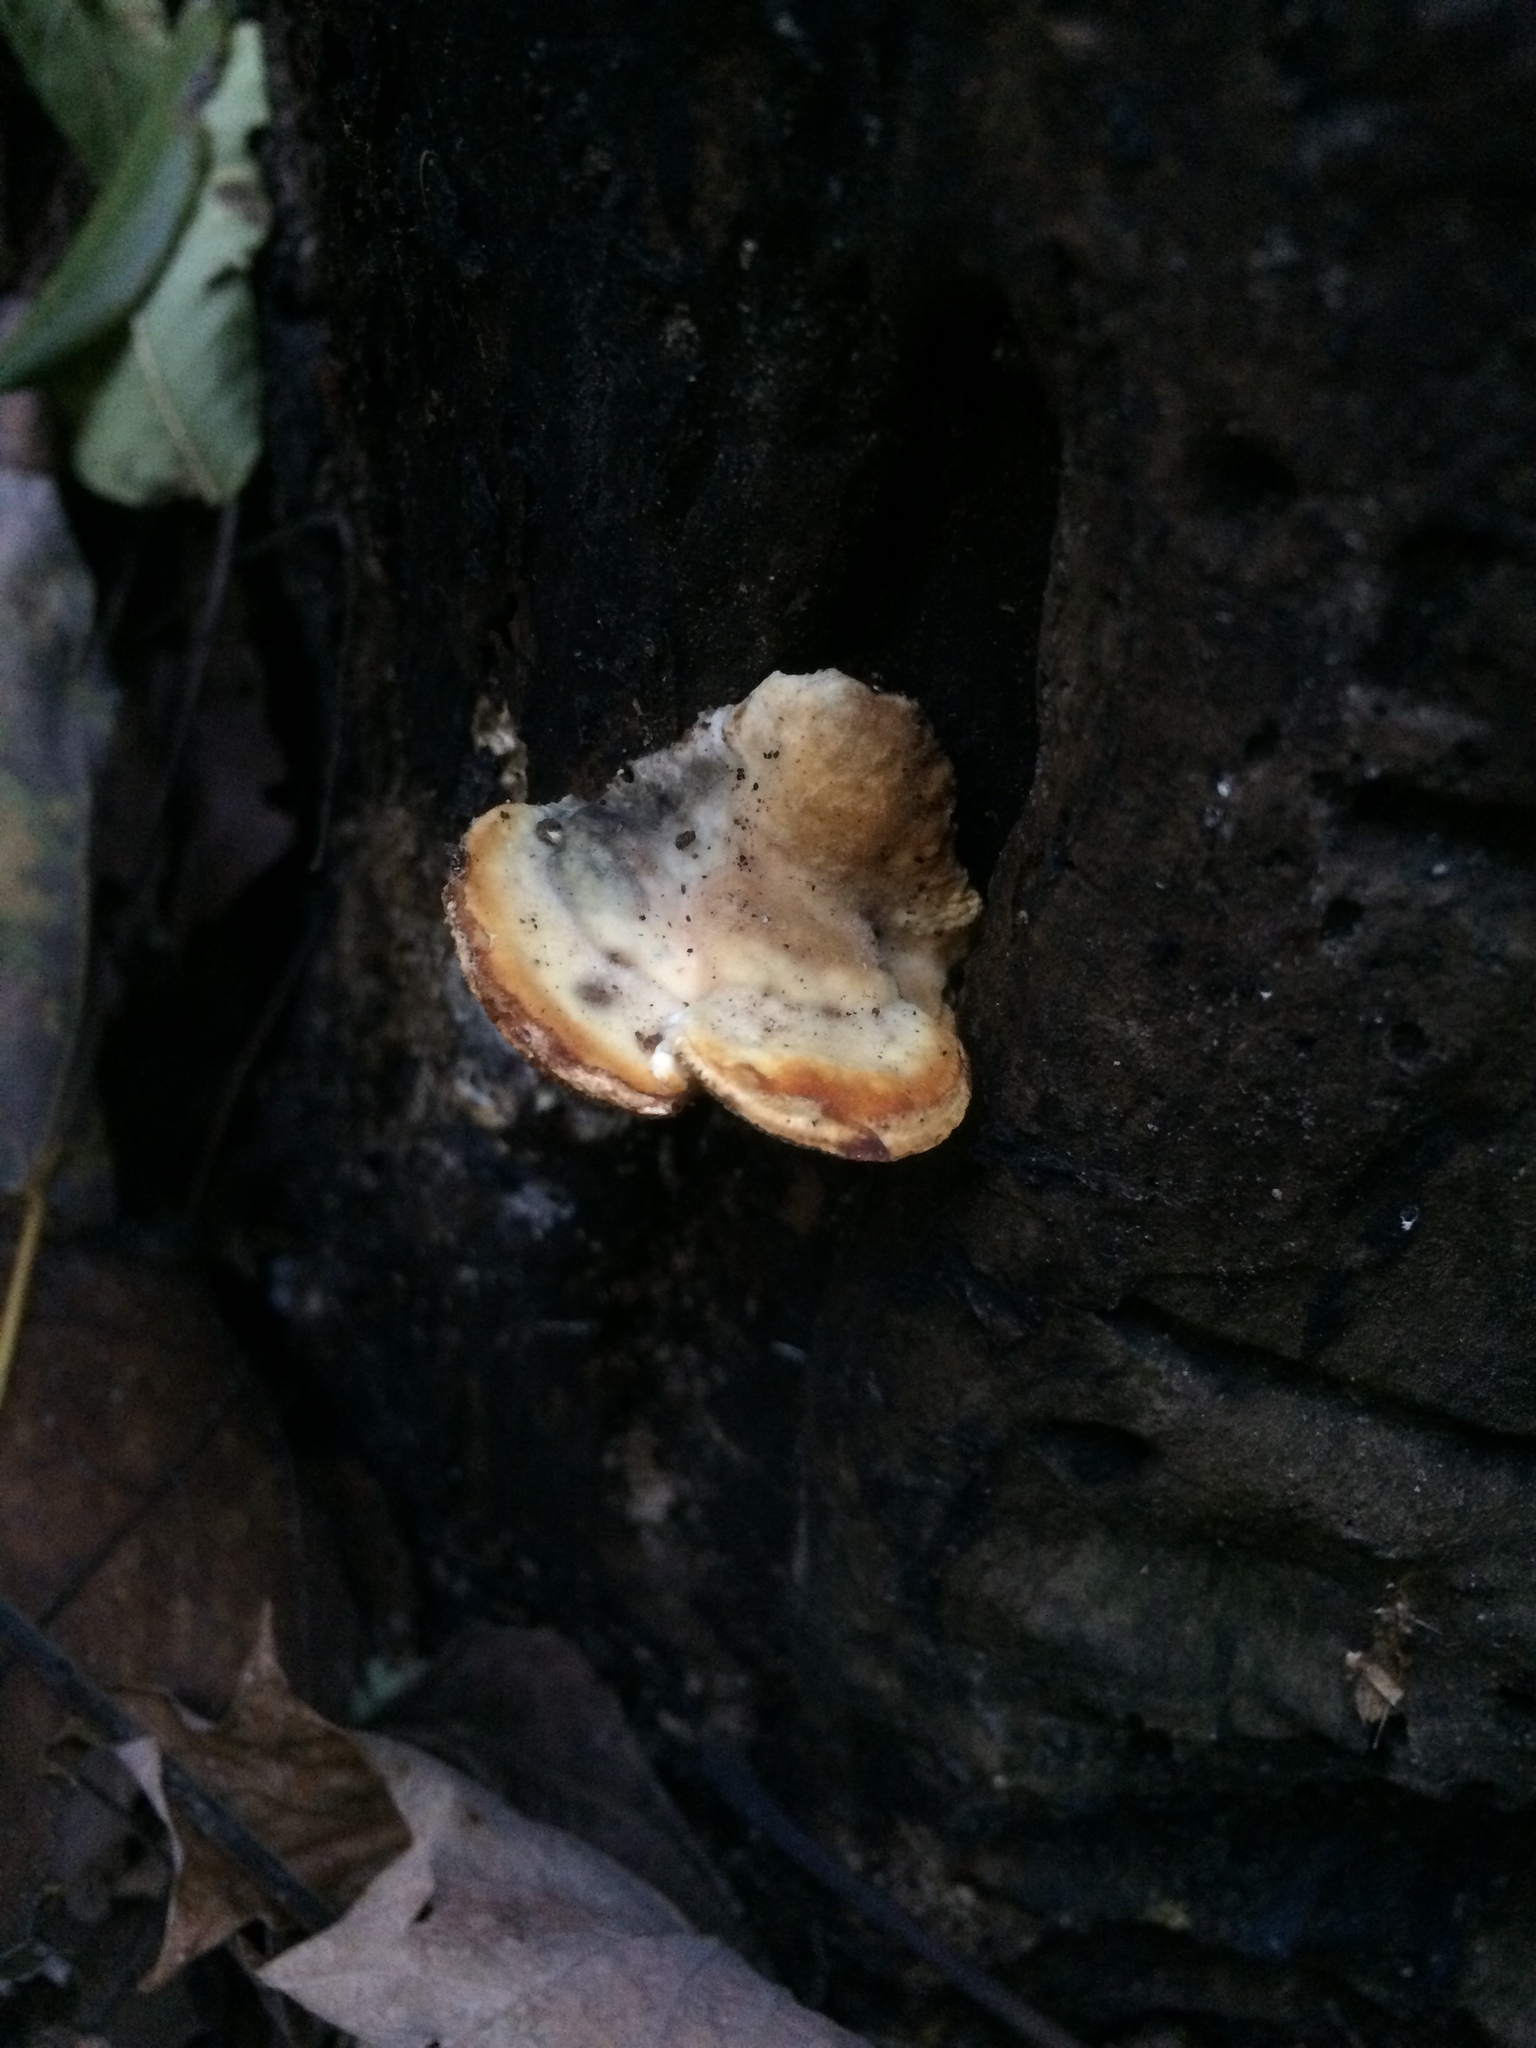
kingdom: Fungi
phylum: Basidiomycota
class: Agaricomycetes
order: Polyporales
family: Polyporaceae
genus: Trametes
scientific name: Trametes
